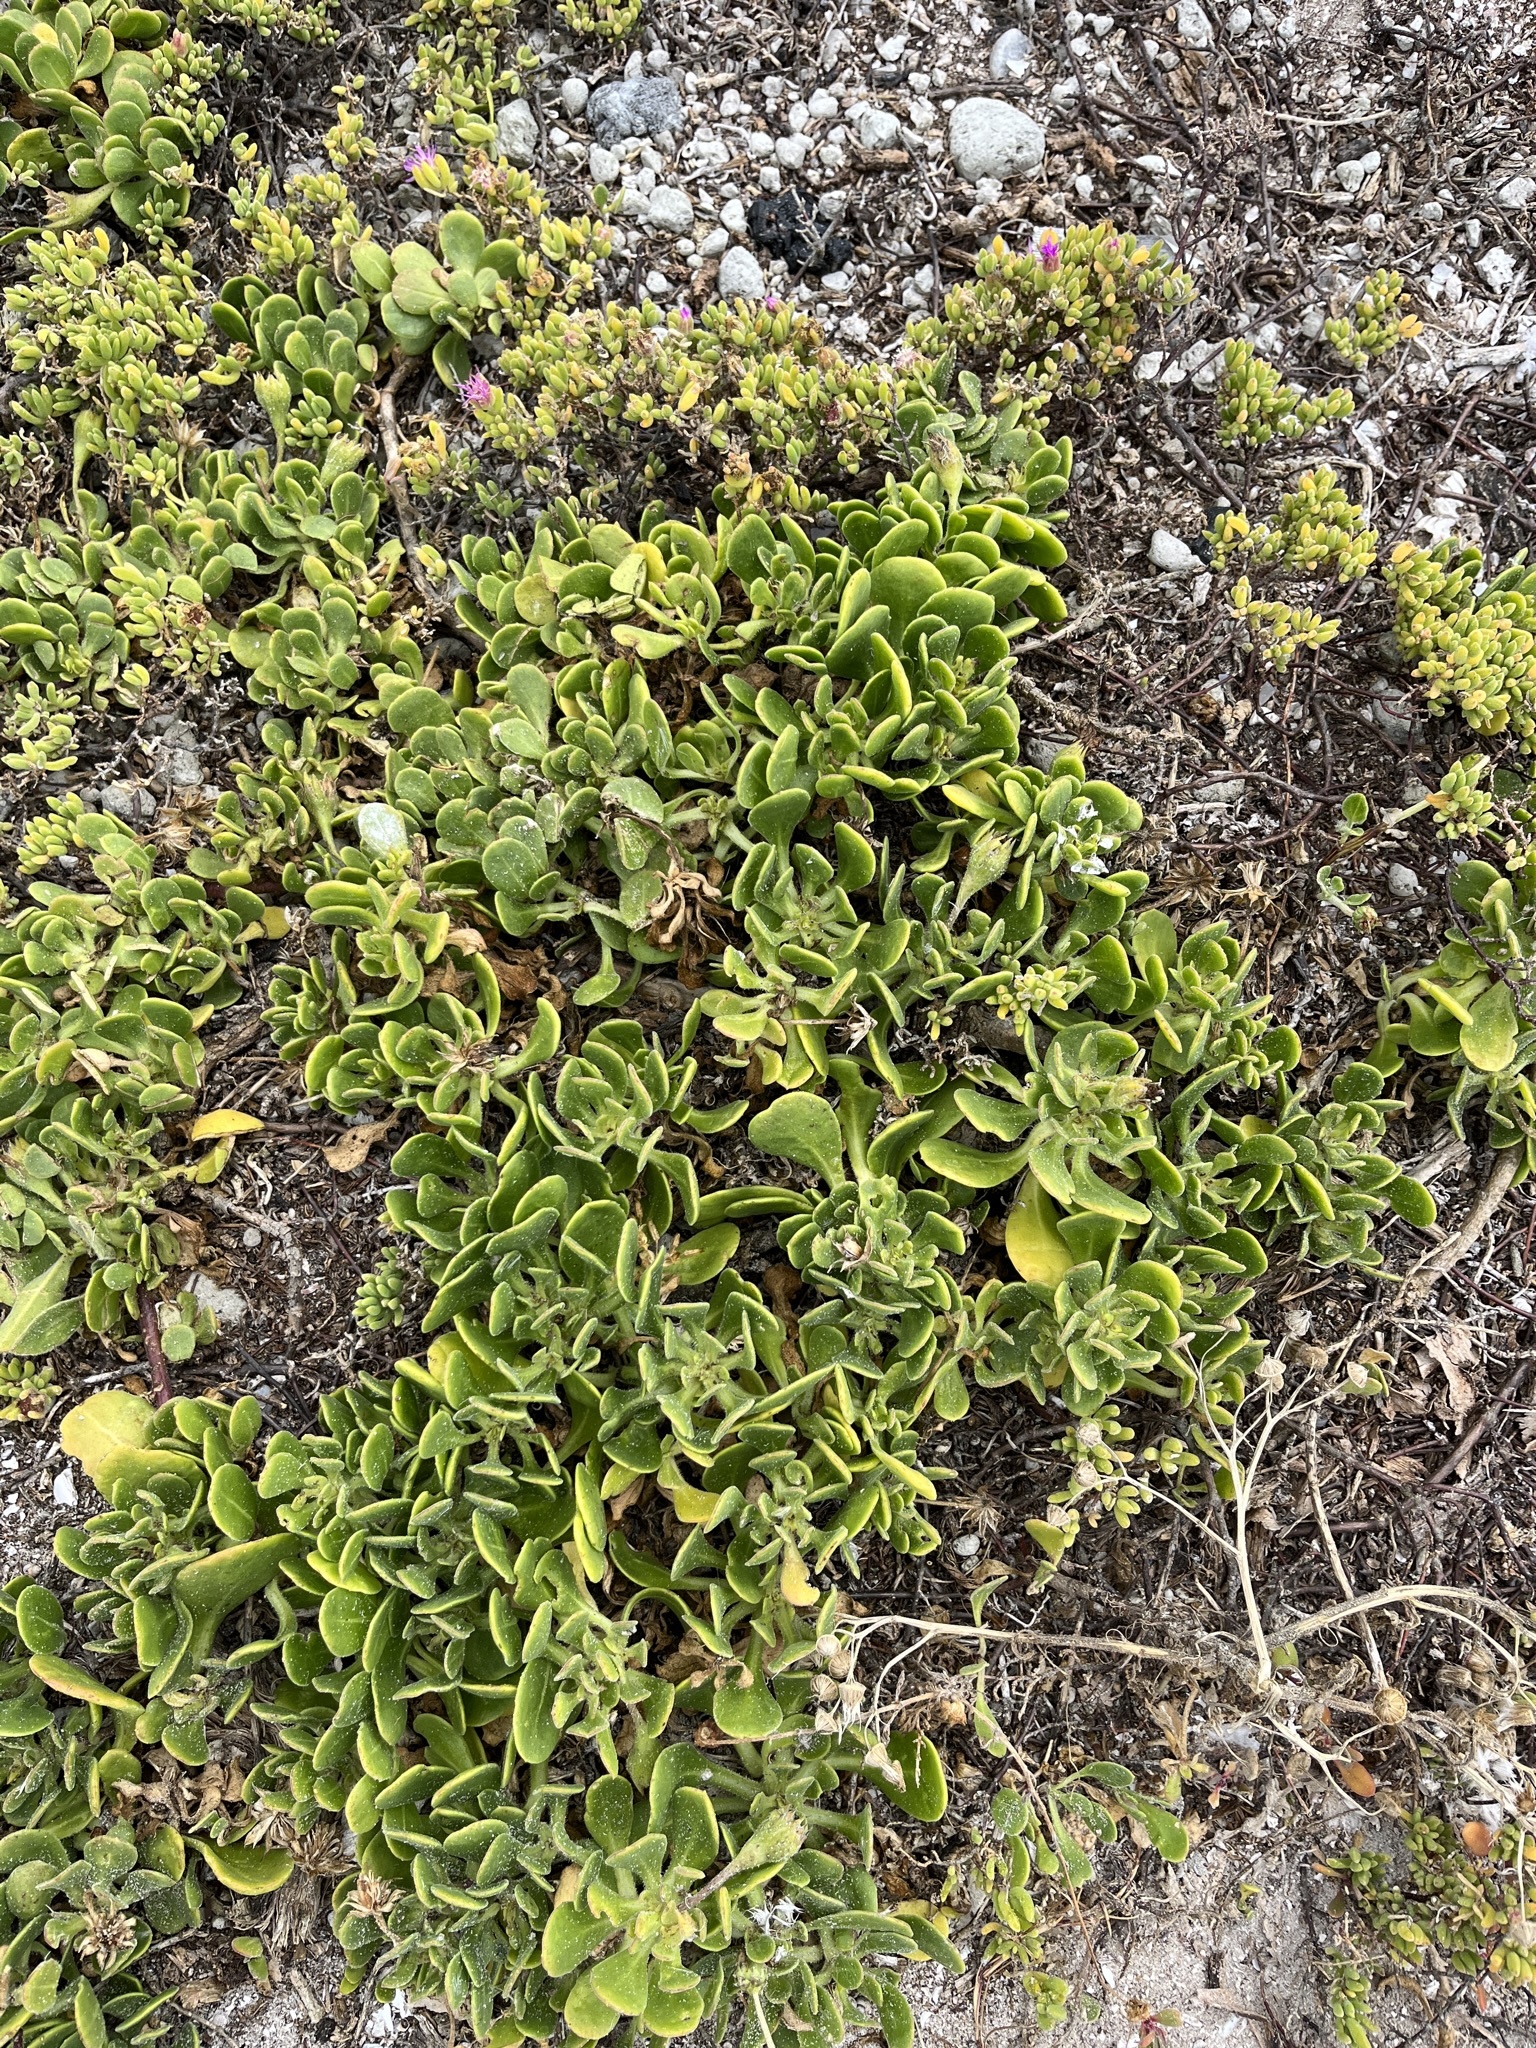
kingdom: Plantae
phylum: Tracheophyta
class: Magnoliopsida
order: Asterales
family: Asteraceae
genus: Dimorphotheca
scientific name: Dimorphotheca fruticosa
